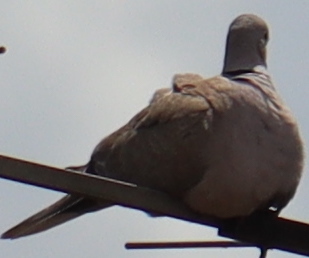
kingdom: Animalia
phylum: Chordata
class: Aves
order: Columbiformes
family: Columbidae
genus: Streptopelia
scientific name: Streptopelia decaocto
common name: Eurasian collared dove
